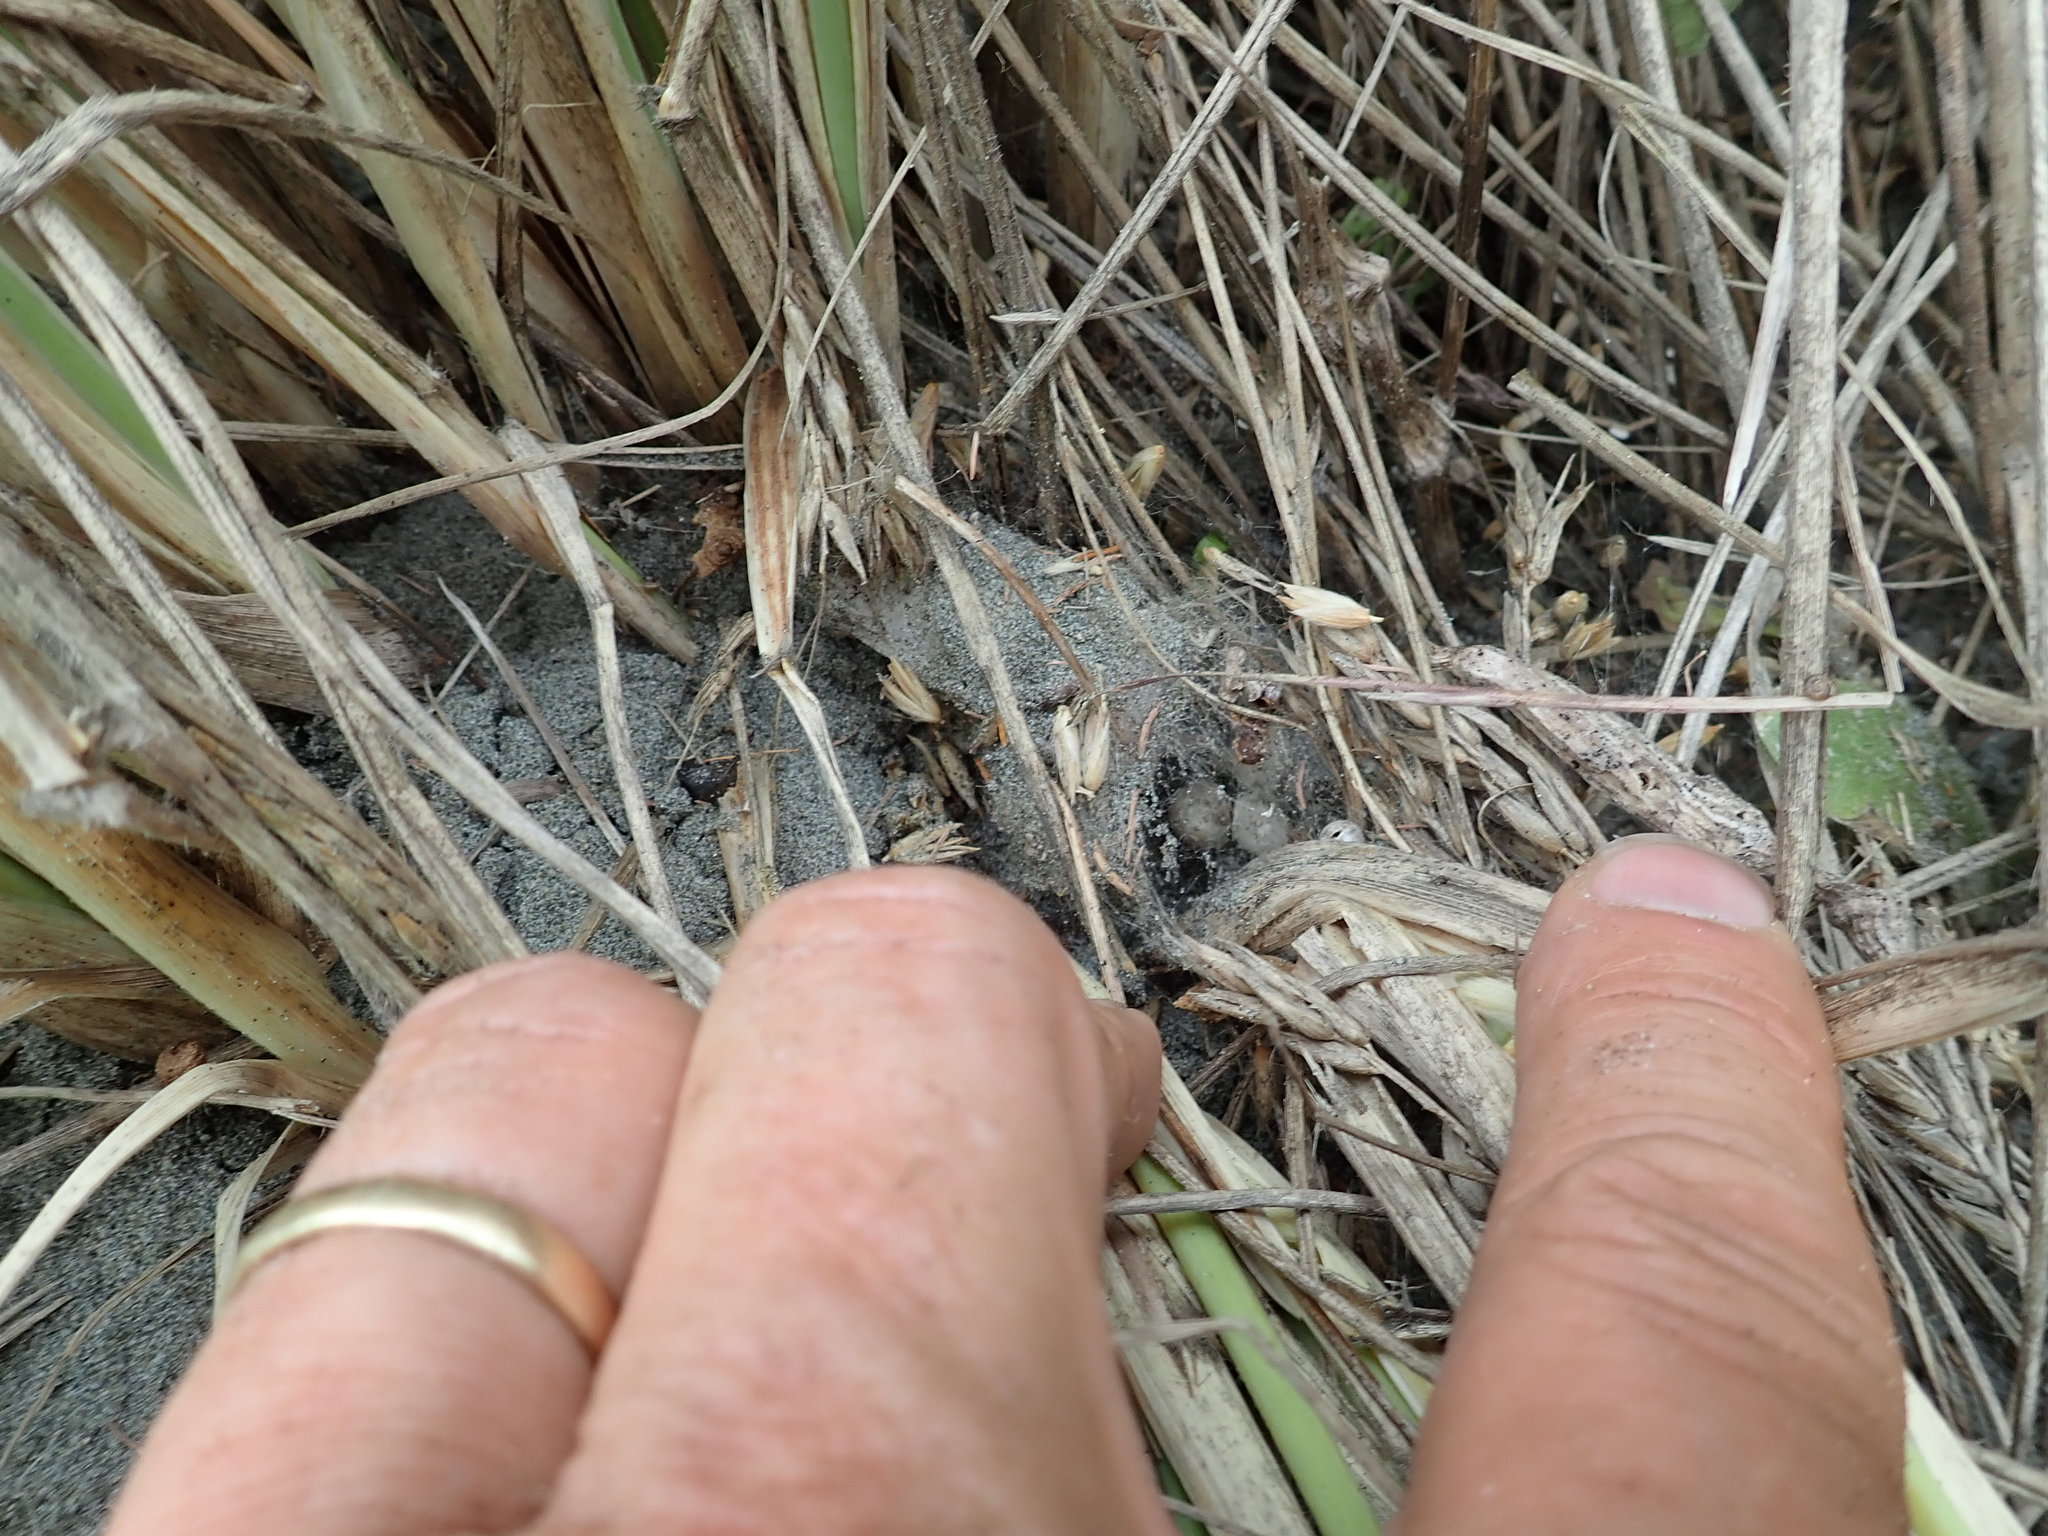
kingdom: Animalia
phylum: Arthropoda
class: Arachnida
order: Araneae
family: Theridiidae
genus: Steatoda
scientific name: Steatoda capensis
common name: Cobweb weaver
